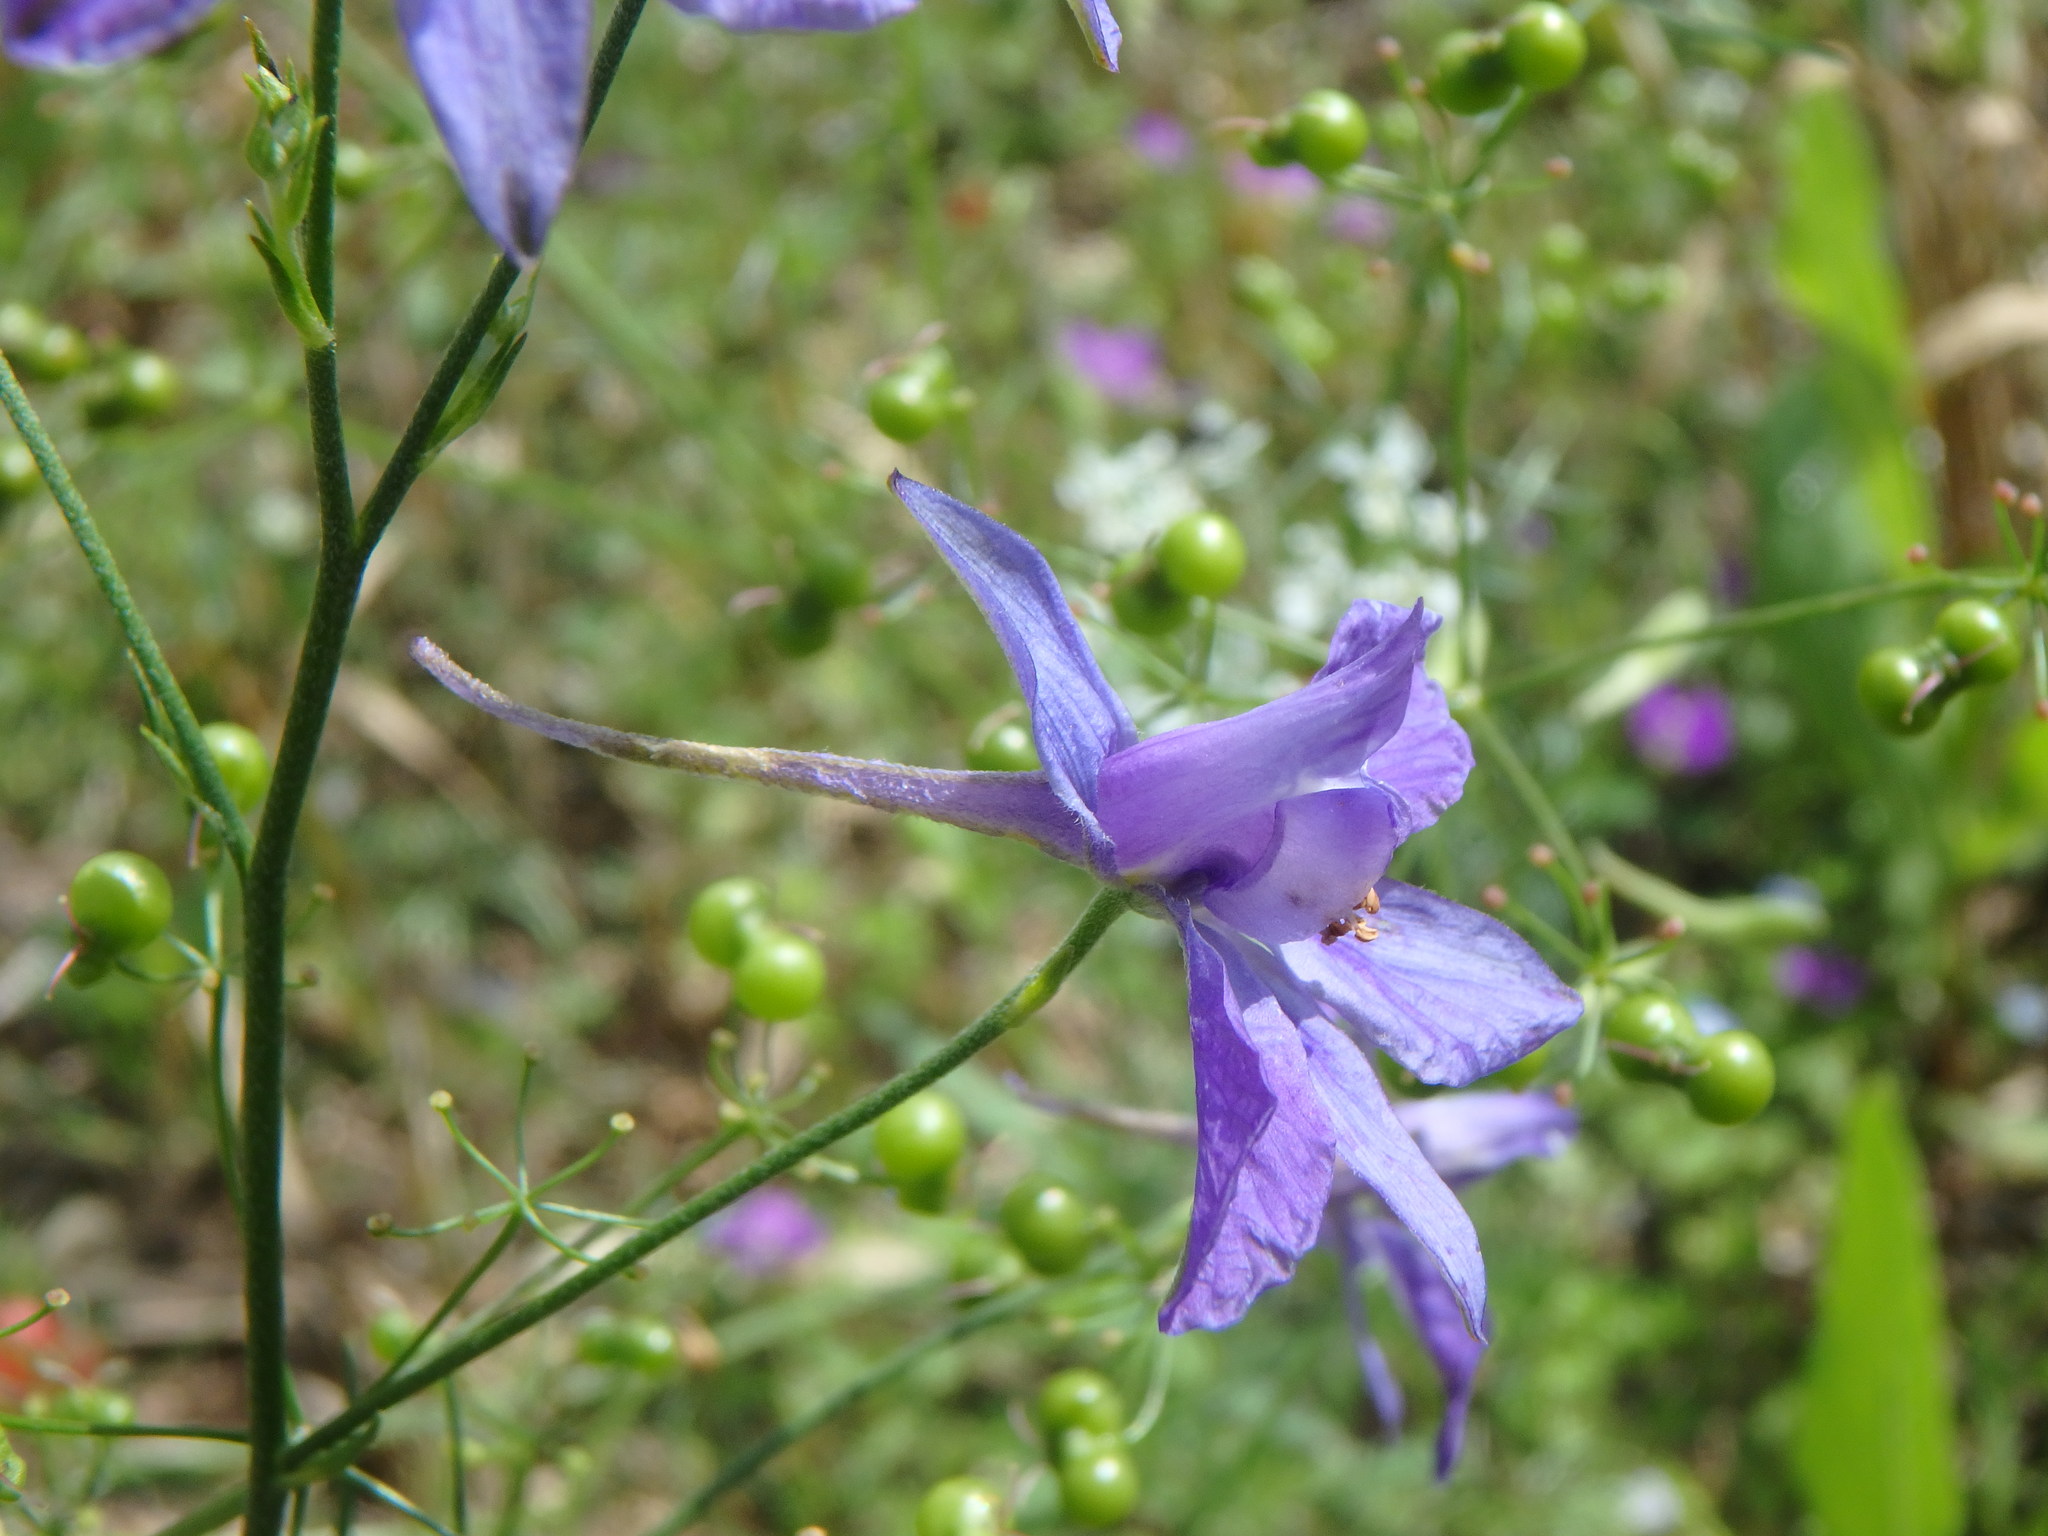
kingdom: Plantae
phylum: Tracheophyta
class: Magnoliopsida
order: Ranunculales
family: Ranunculaceae
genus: Delphinium
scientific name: Delphinium consolida
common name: Branching larkspur
